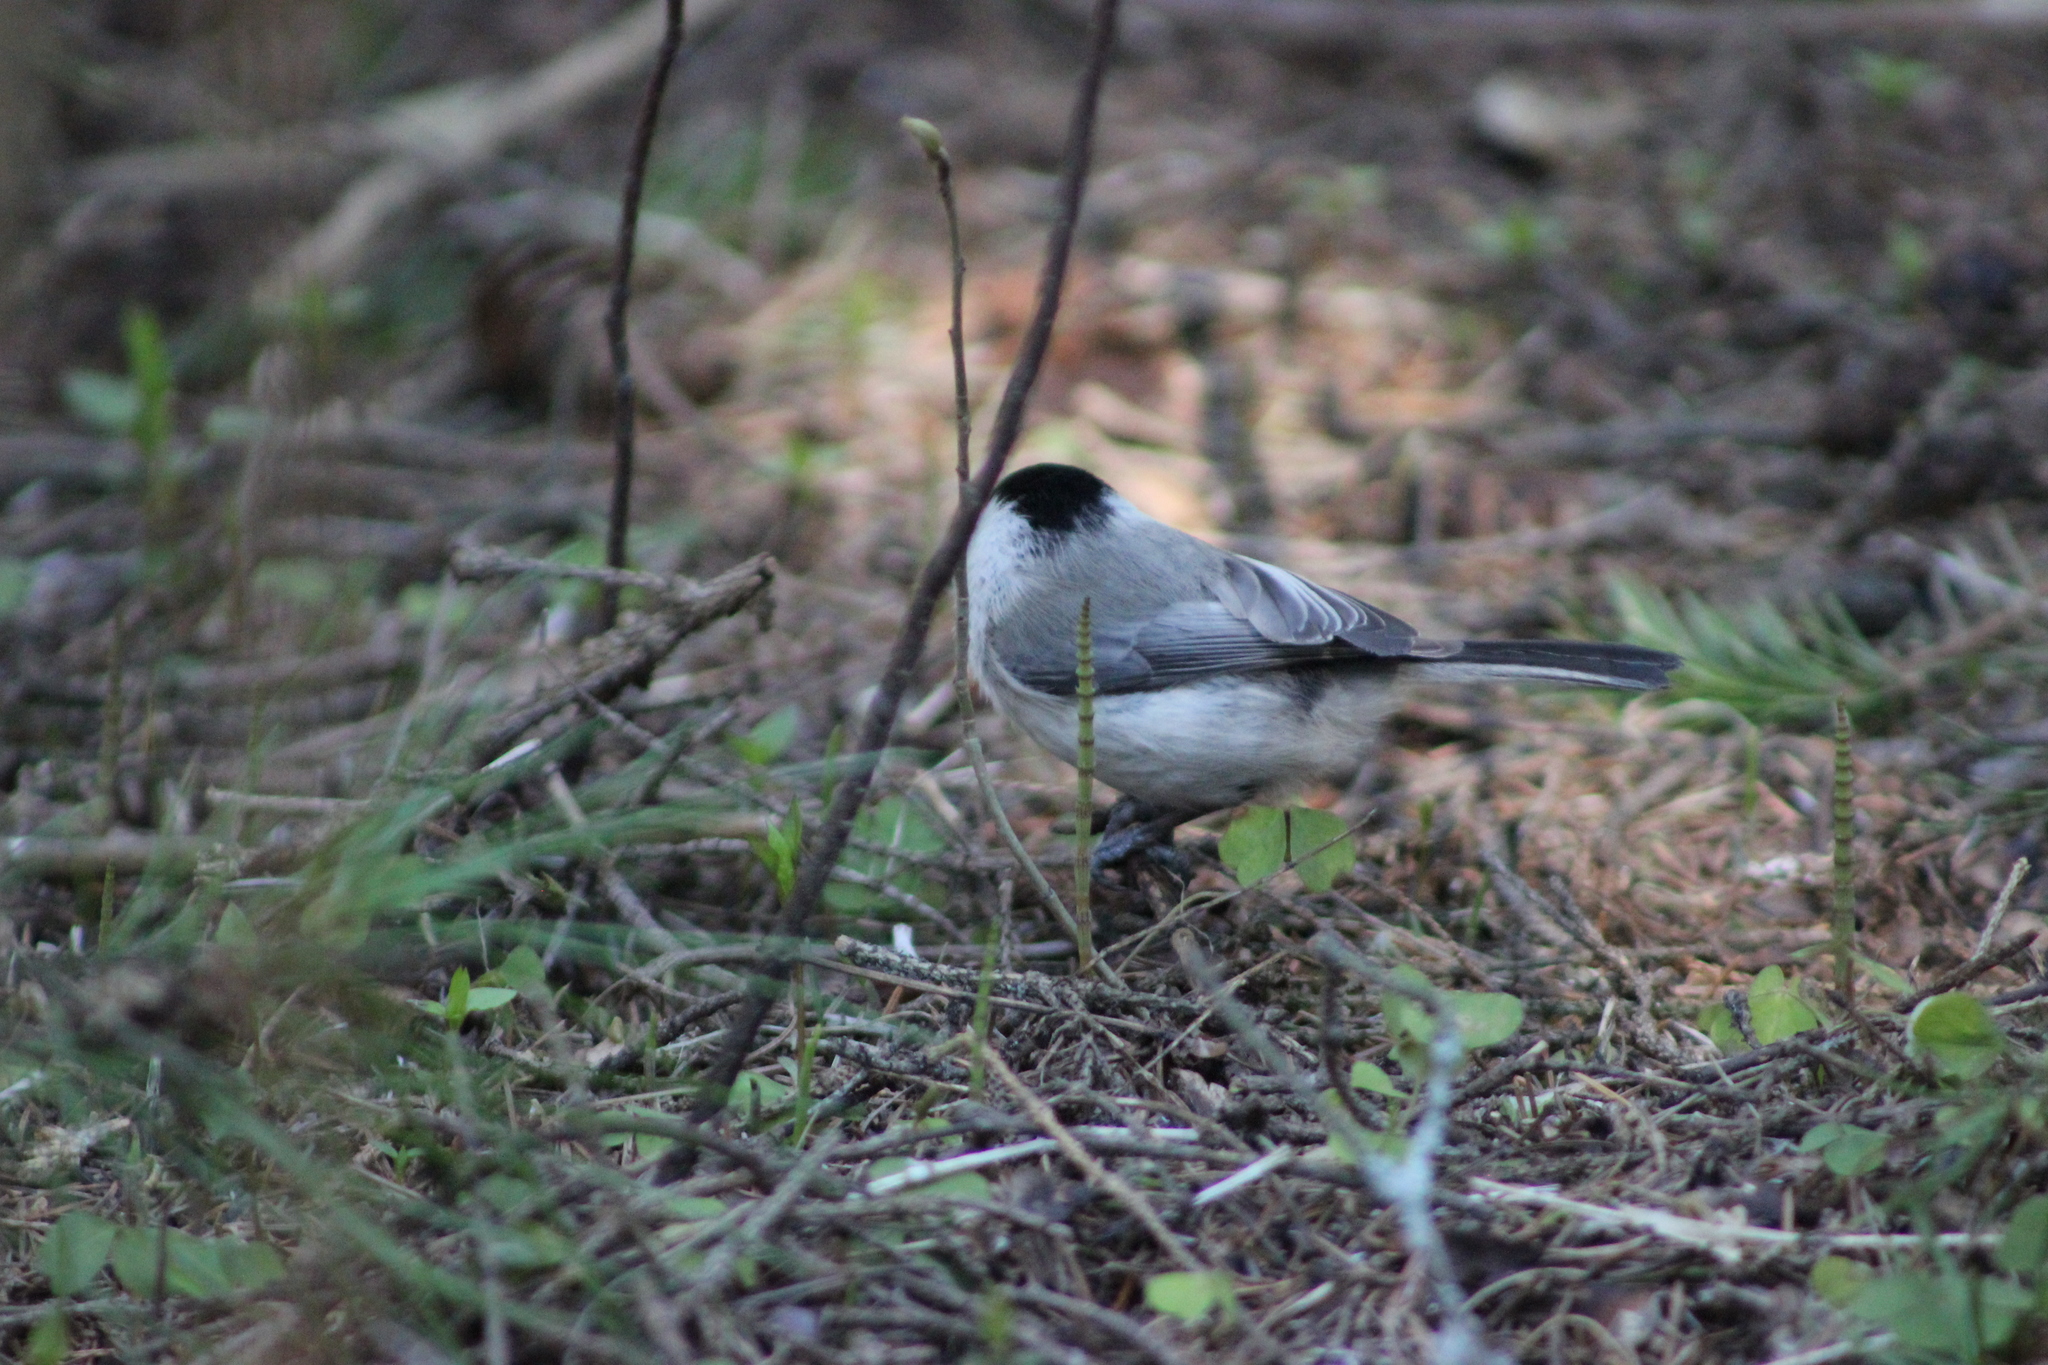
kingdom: Animalia
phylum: Chordata
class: Aves
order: Passeriformes
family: Paridae
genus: Poecile
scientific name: Poecile montanus
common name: Willow tit
